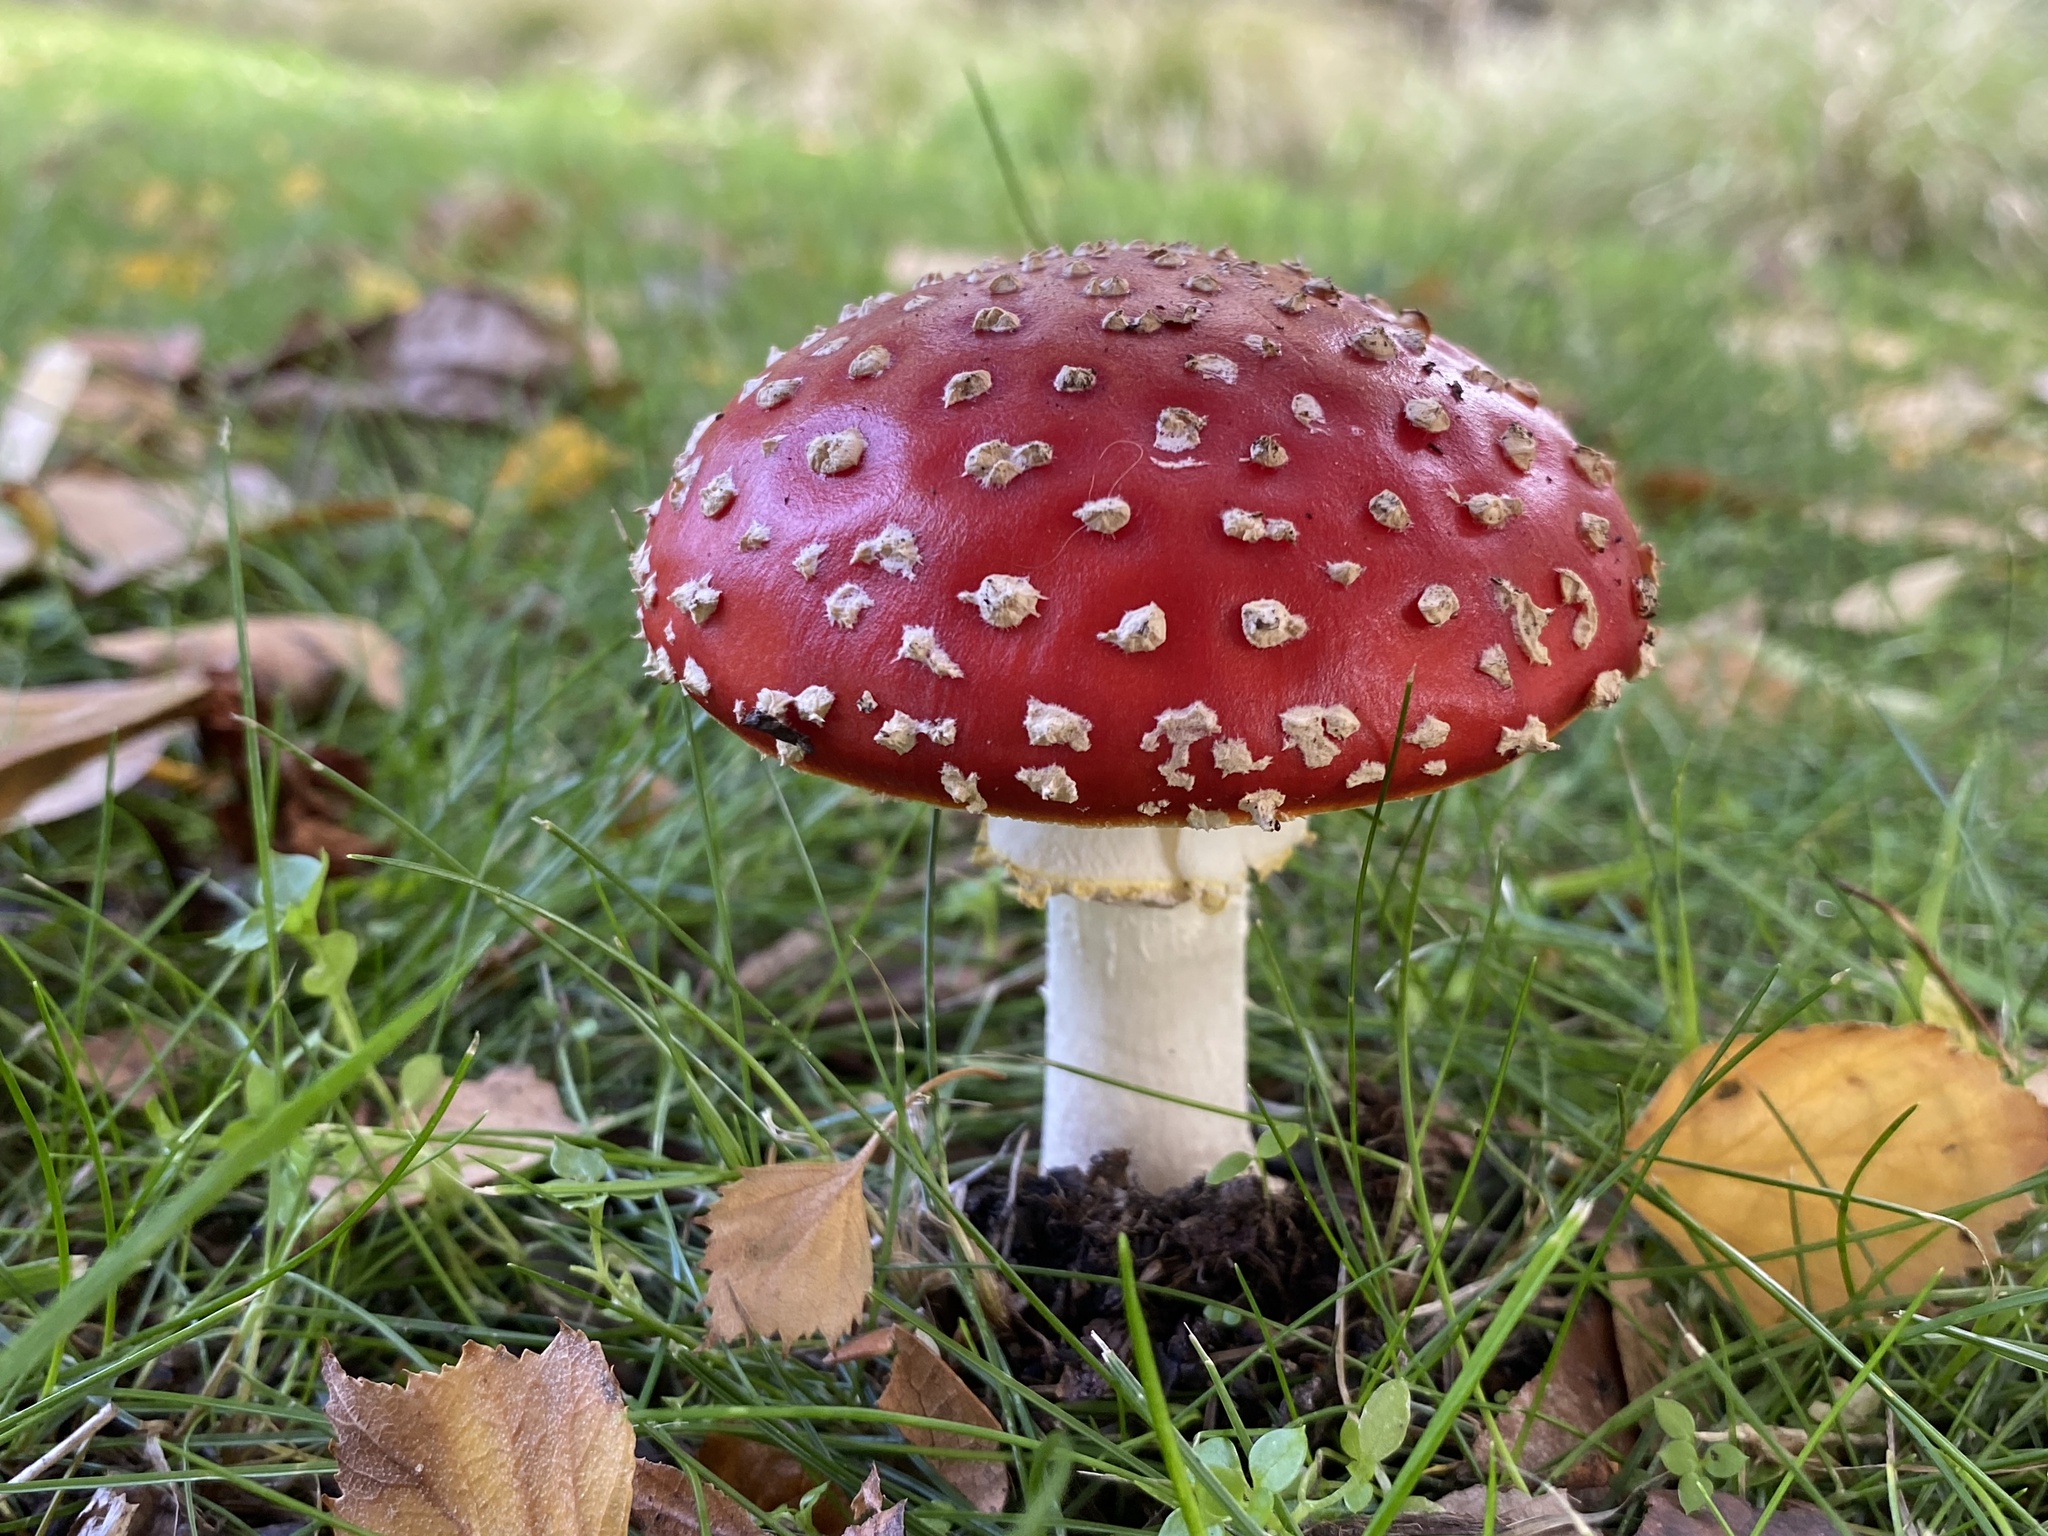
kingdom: Fungi
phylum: Basidiomycota
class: Agaricomycetes
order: Agaricales
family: Amanitaceae
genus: Amanita
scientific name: Amanita muscaria
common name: Fly agaric
